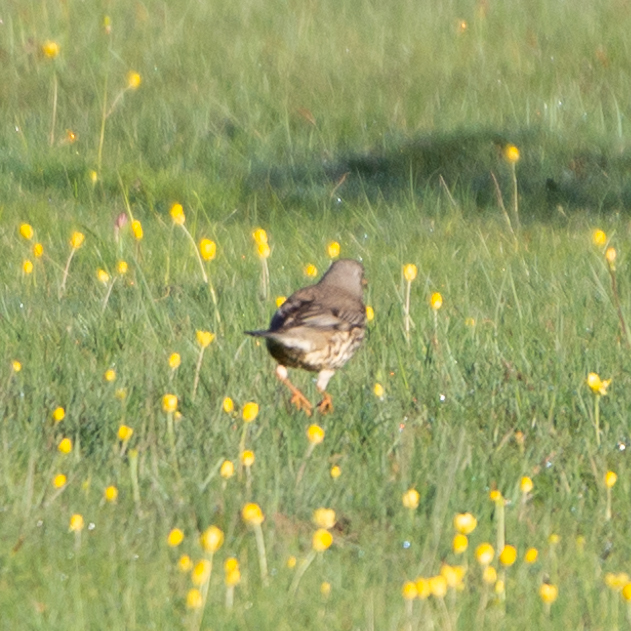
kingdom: Animalia
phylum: Chordata
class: Aves
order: Passeriformes
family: Turdidae
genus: Turdus
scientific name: Turdus viscivorus
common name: Mistle thrush
